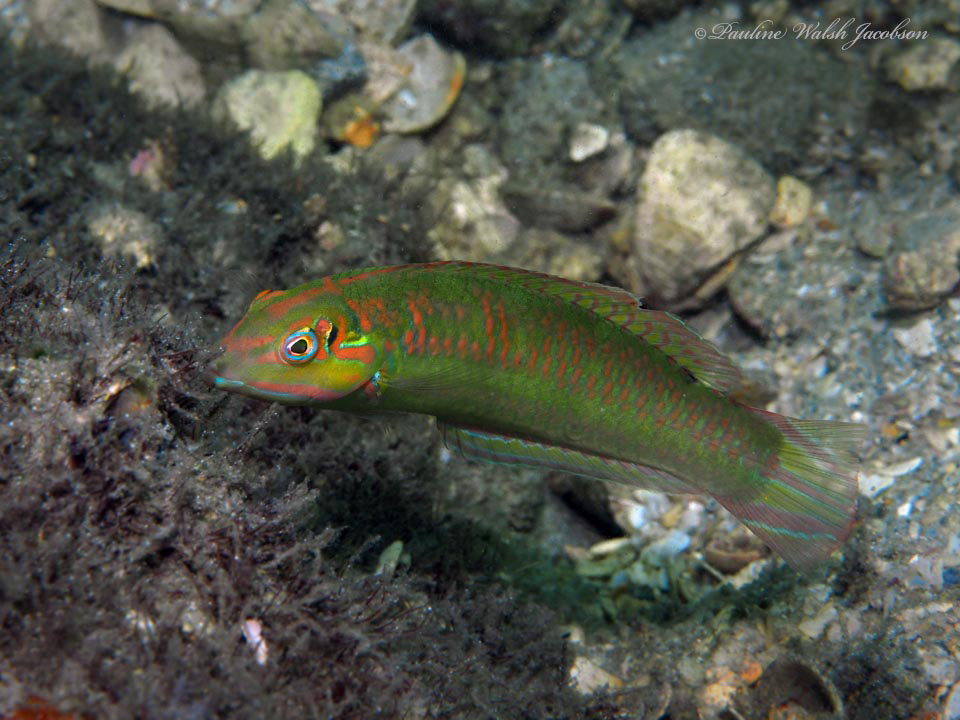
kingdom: Animalia
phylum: Chordata
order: Perciformes
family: Labridae
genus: Halichoeres
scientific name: Halichoeres poeyi
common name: Blackear wrasse
